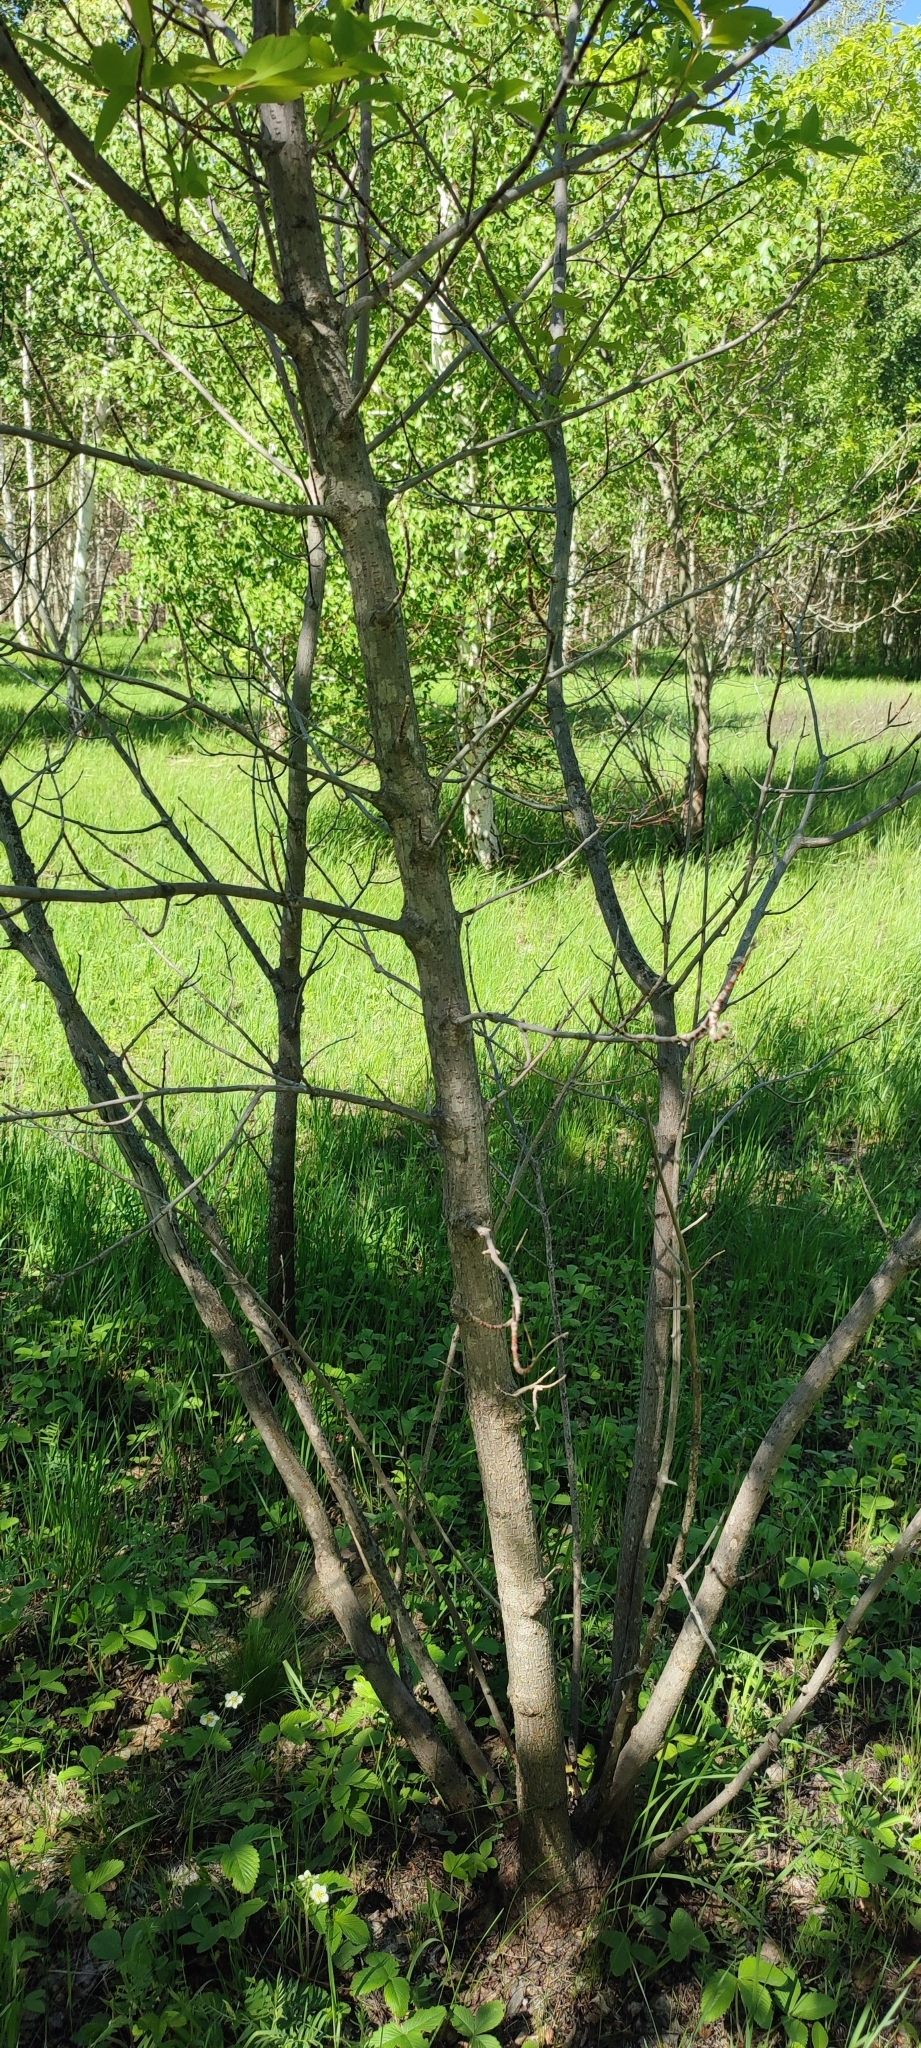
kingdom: Plantae
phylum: Tracheophyta
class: Magnoliopsida
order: Sapindales
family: Sapindaceae
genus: Acer
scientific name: Acer negundo
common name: Ashleaf maple
